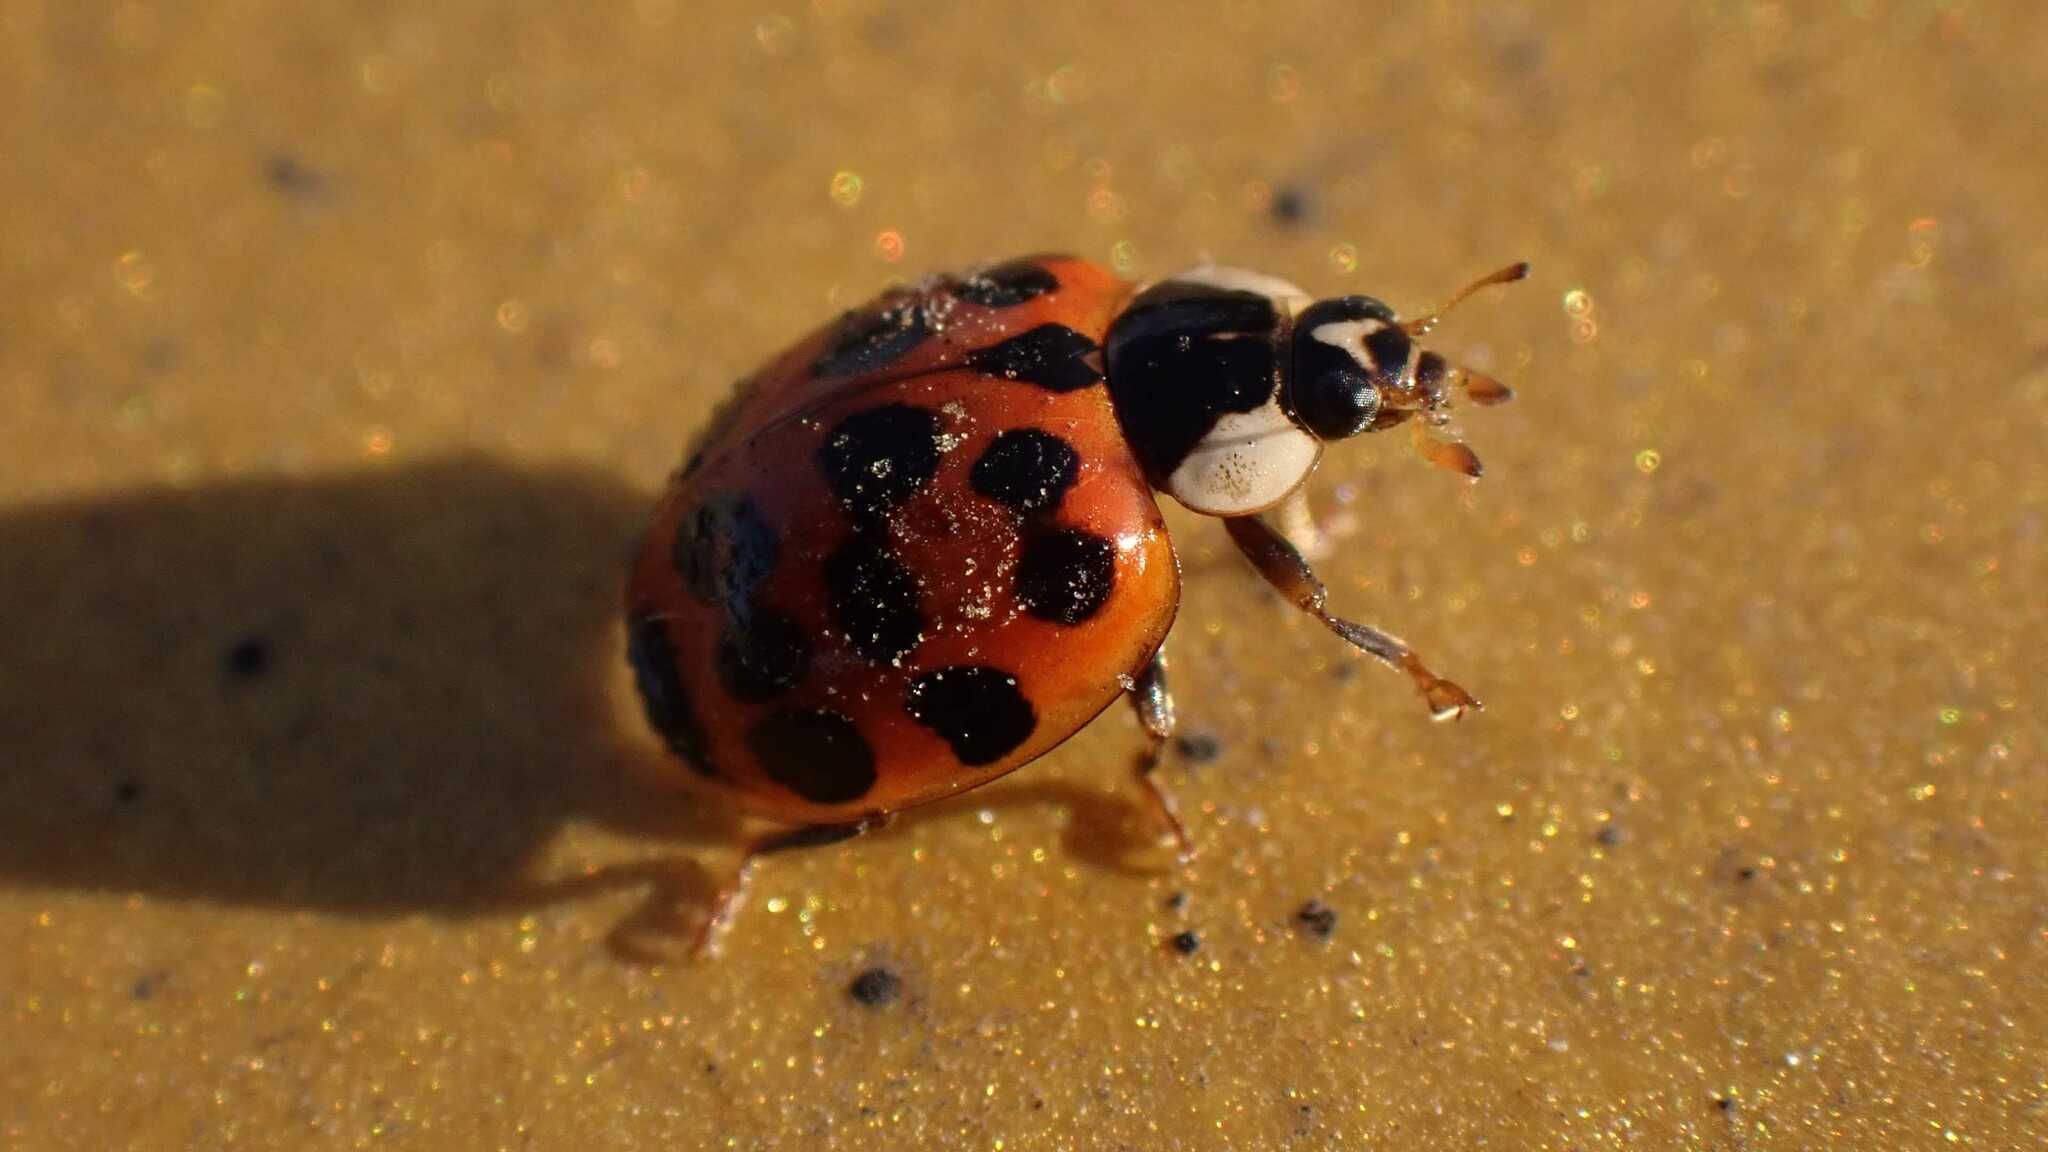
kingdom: Animalia
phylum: Arthropoda
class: Insecta
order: Coleoptera
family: Coccinellidae
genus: Harmonia
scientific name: Harmonia axyridis
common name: Harlequin ladybird
